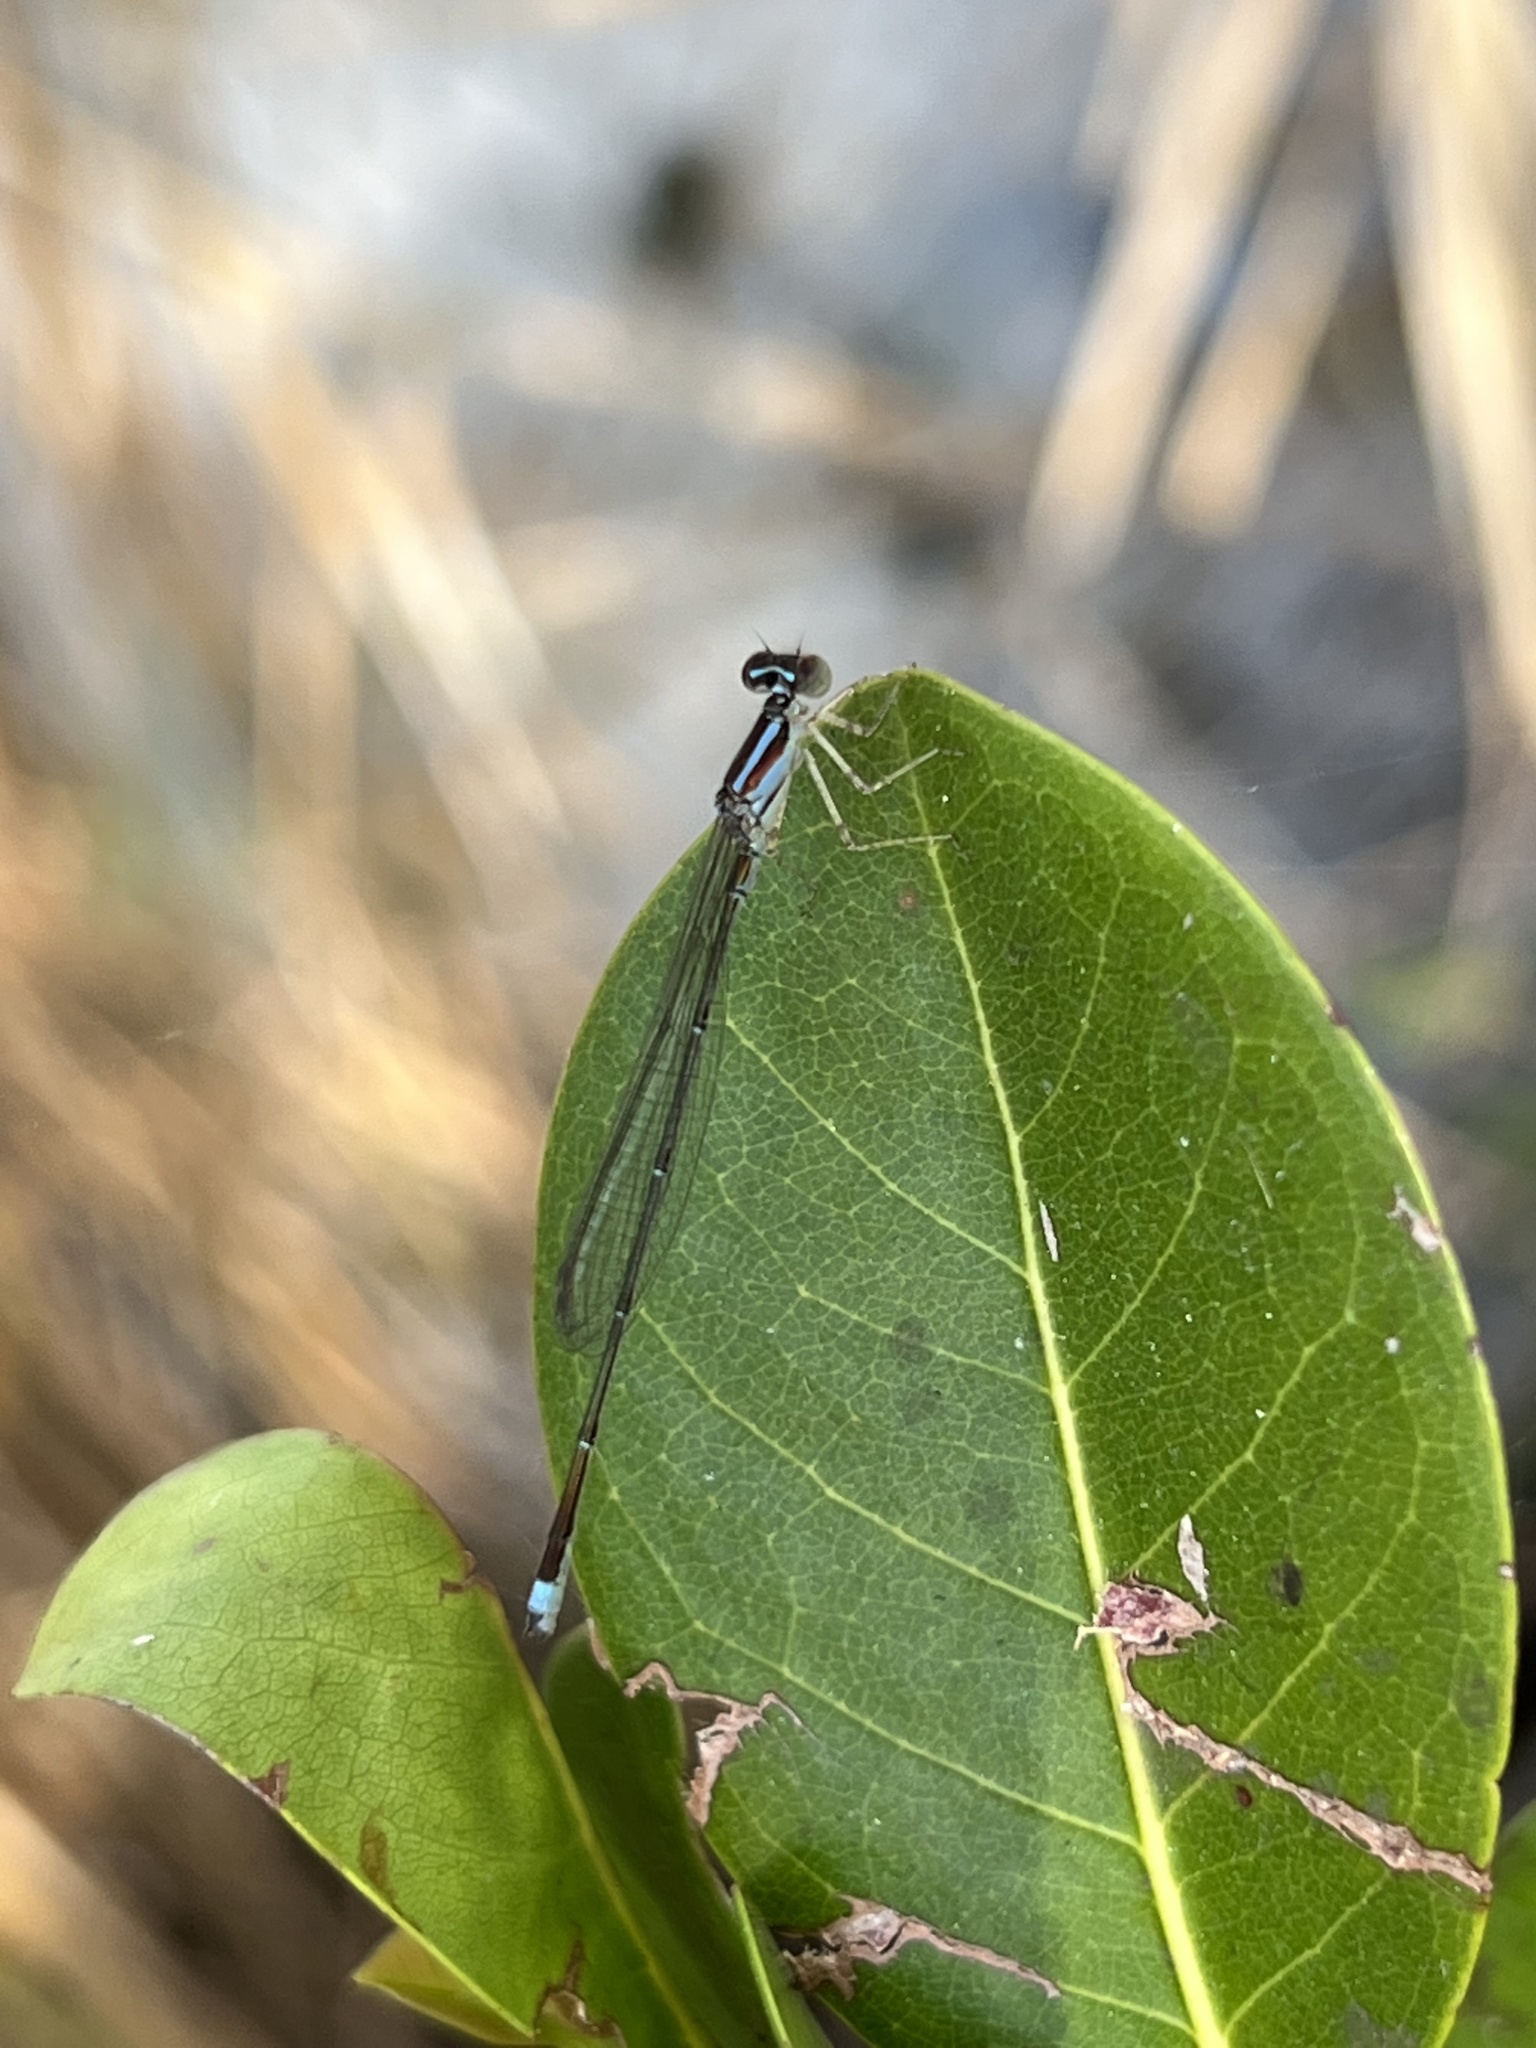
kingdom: Animalia
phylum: Arthropoda
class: Insecta
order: Odonata
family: Coenagrionidae
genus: Enallagma
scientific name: Enallagma pollutum
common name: Florida bluet
